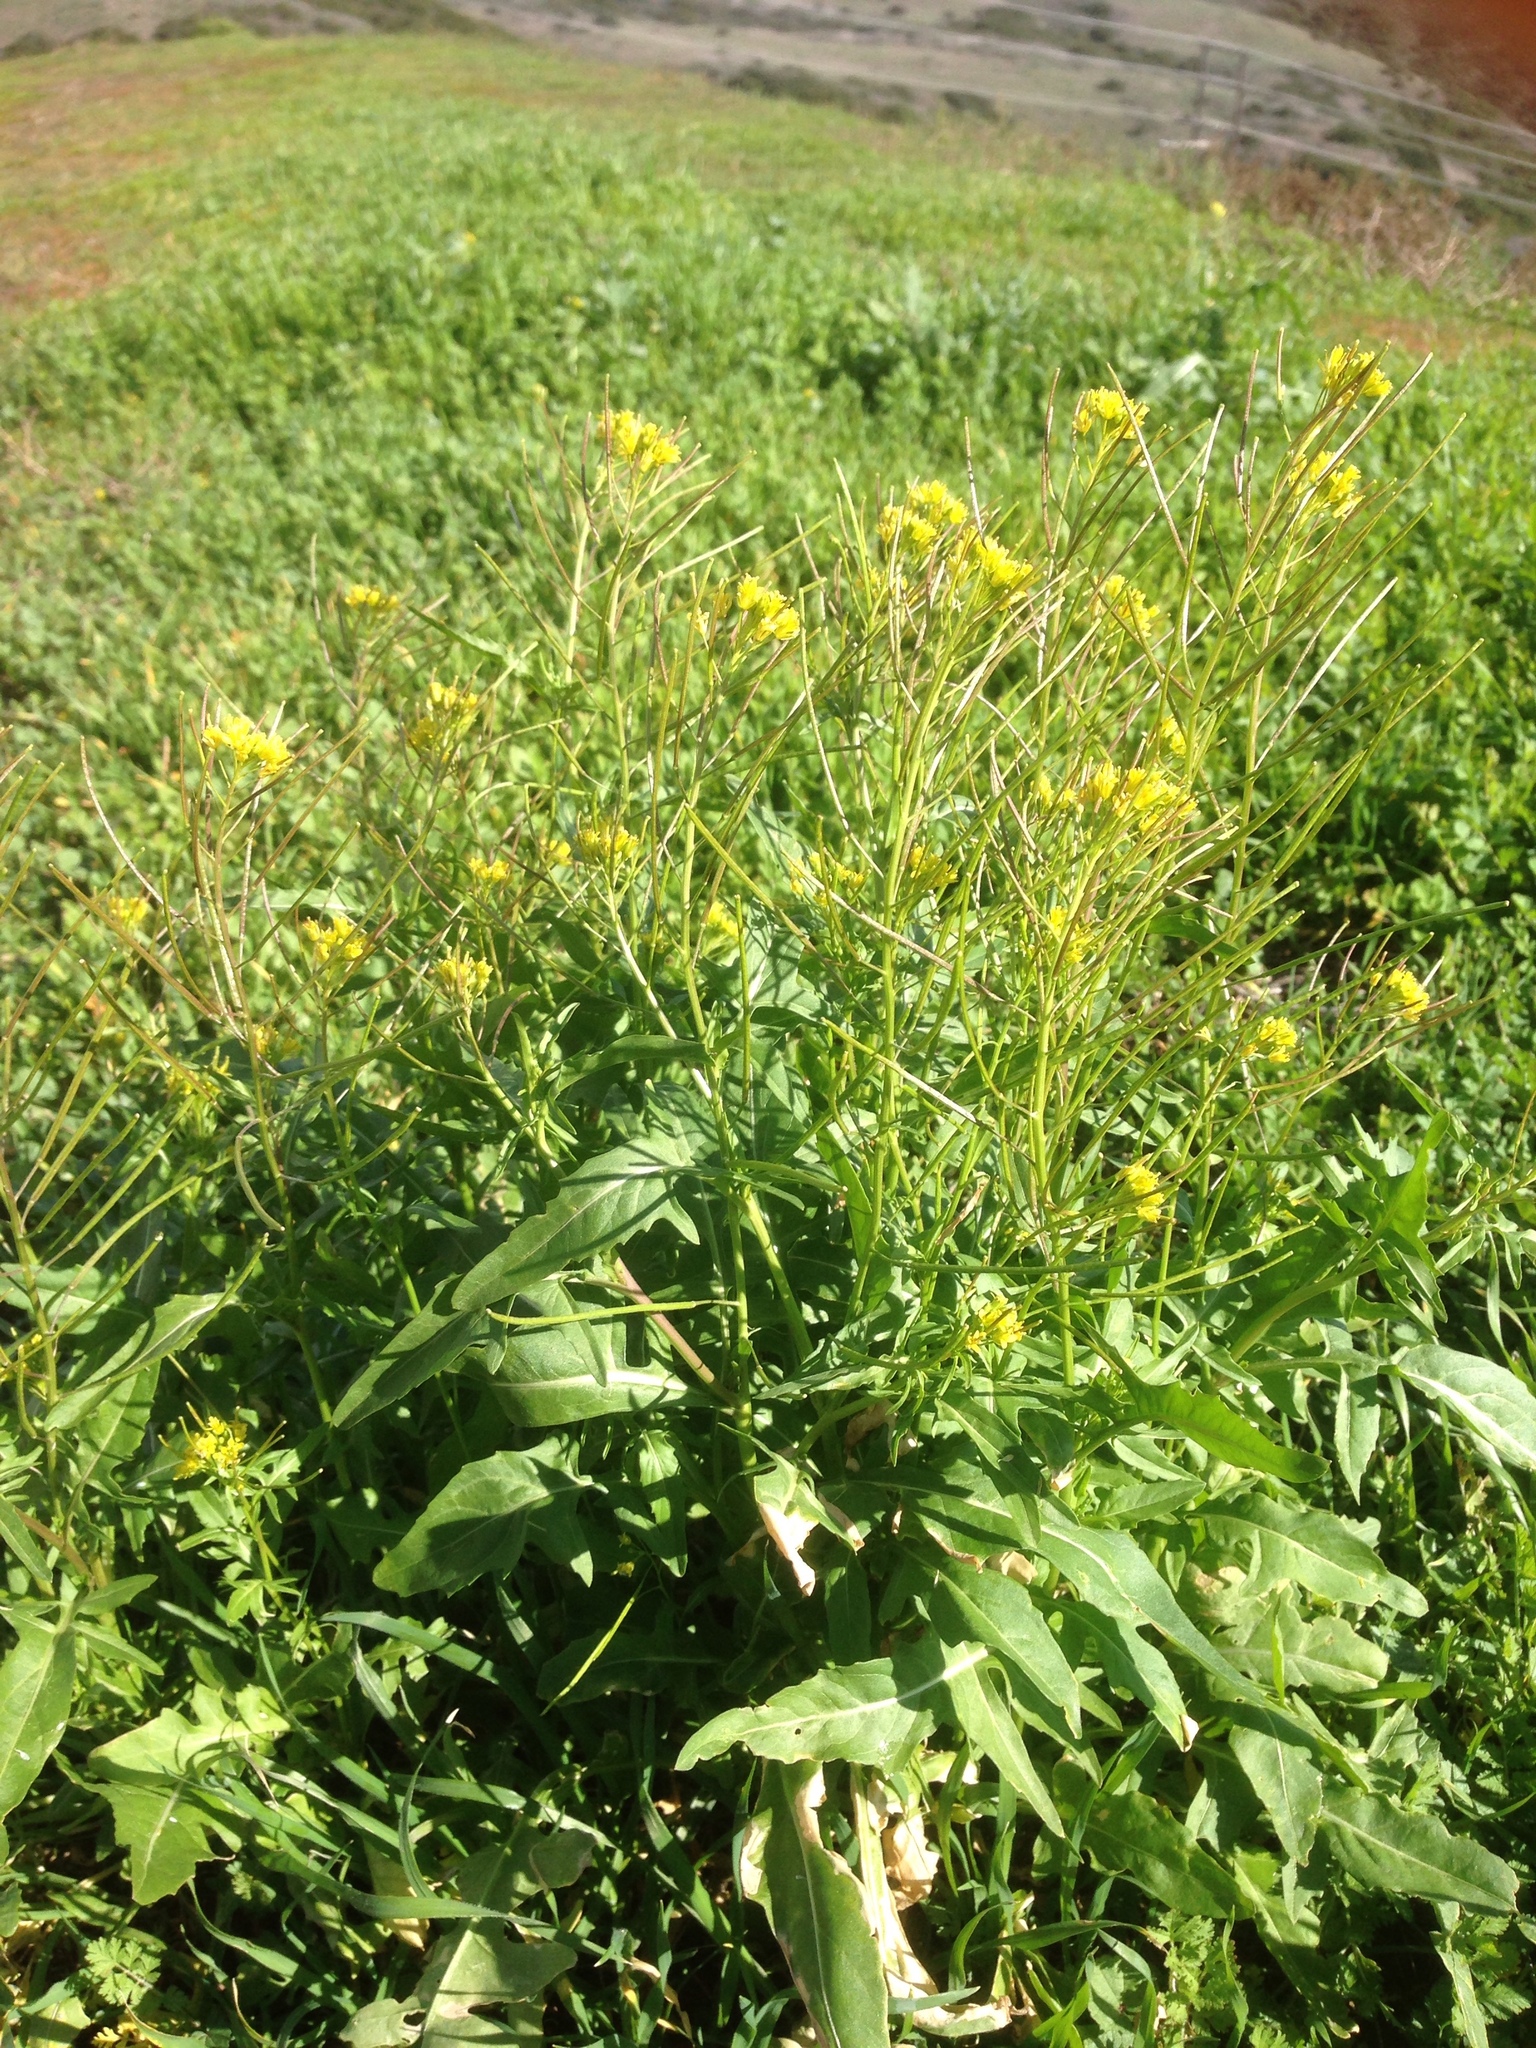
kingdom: Plantae
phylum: Tracheophyta
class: Magnoliopsida
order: Brassicales
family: Brassicaceae
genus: Sisymbrium
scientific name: Sisymbrium irio
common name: London rocket
